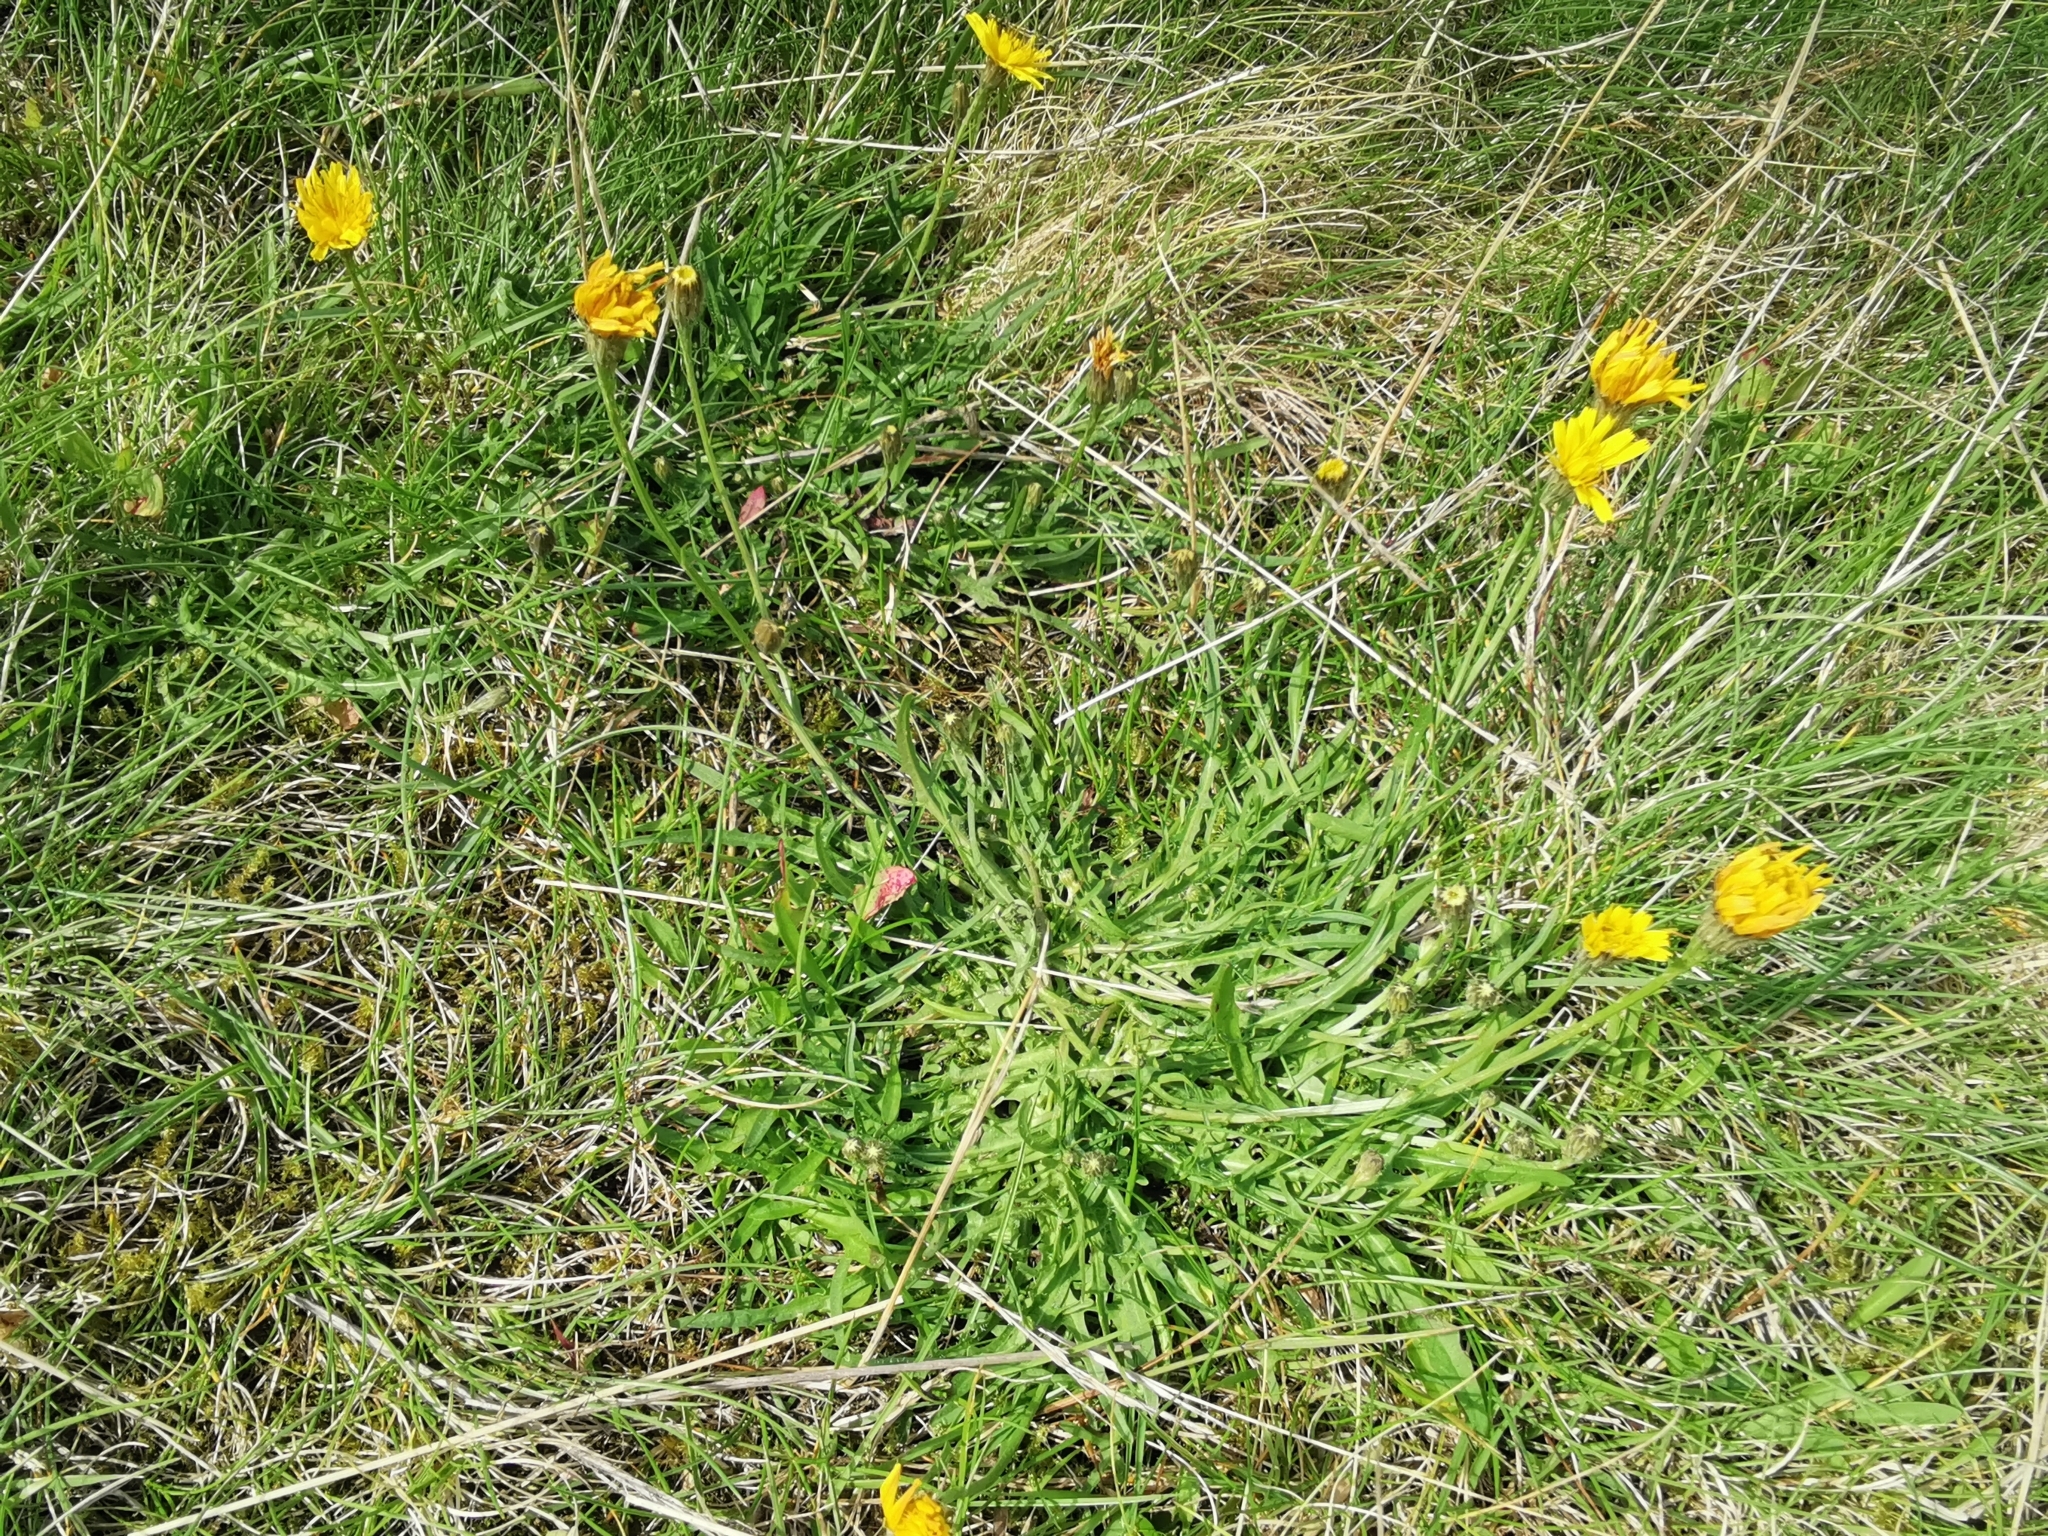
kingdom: Plantae
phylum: Tracheophyta
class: Magnoliopsida
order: Asterales
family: Asteraceae
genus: Scorzoneroides
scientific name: Scorzoneroides autumnalis
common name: Autumn hawkbit
